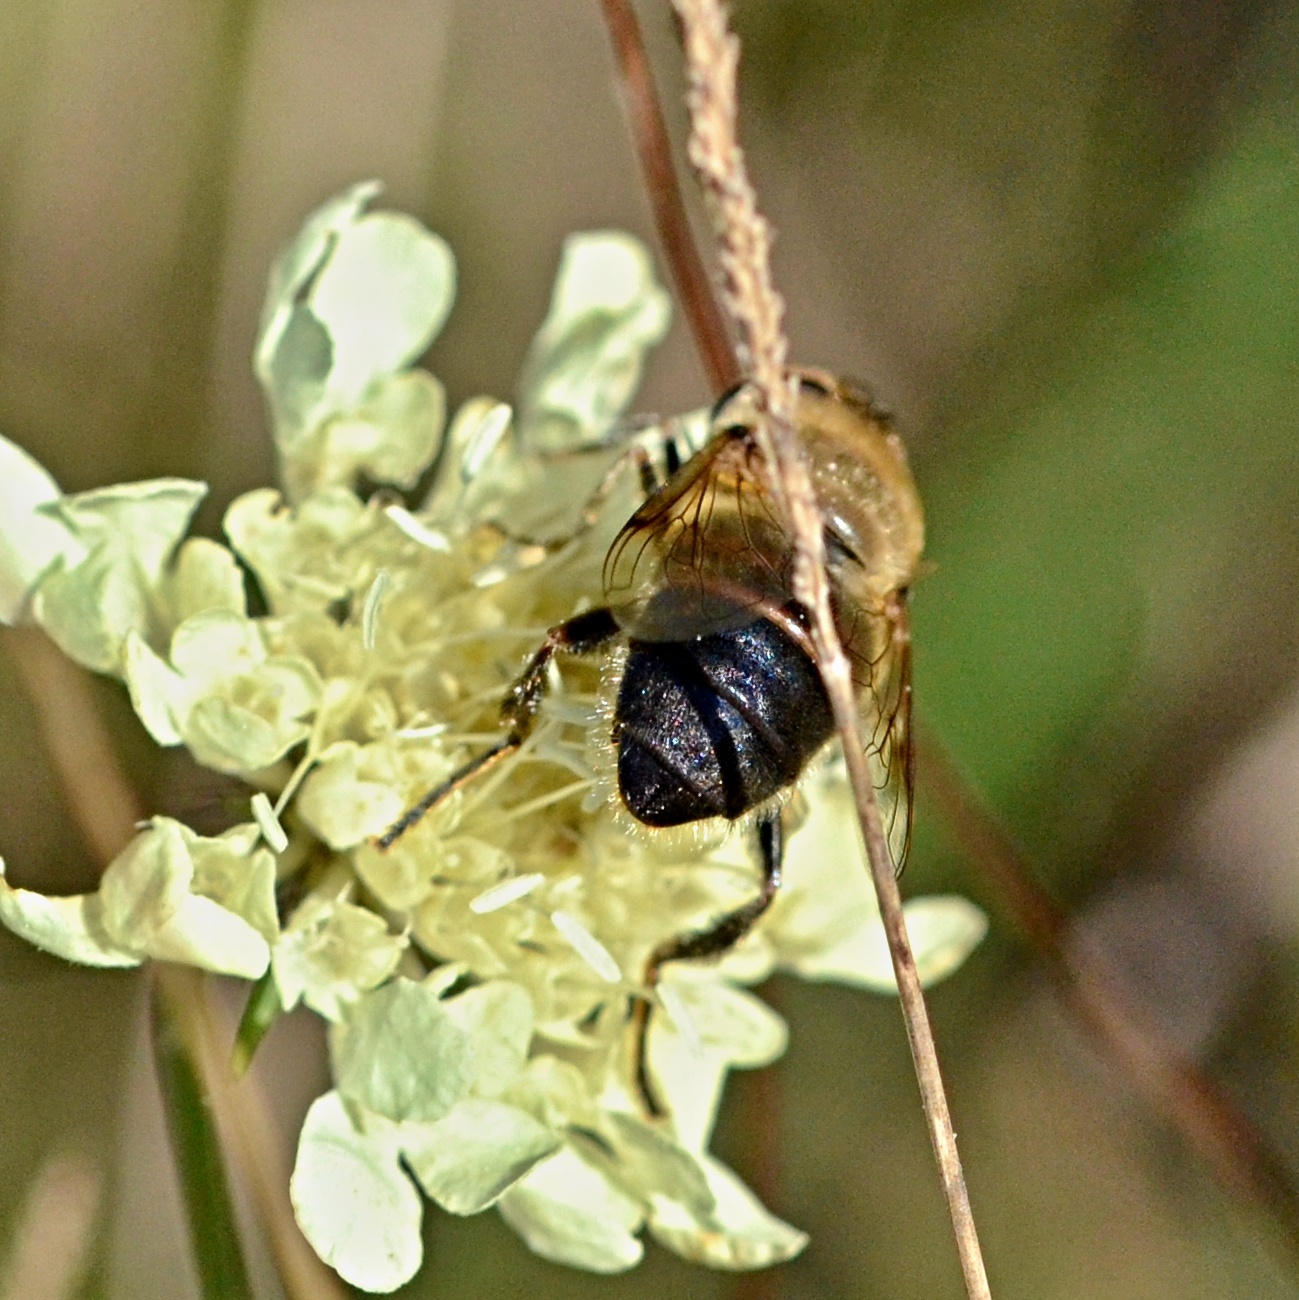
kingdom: Animalia
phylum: Arthropoda
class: Insecta
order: Diptera
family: Syrphidae
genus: Eristalis
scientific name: Eristalis tenax
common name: Drone fly
